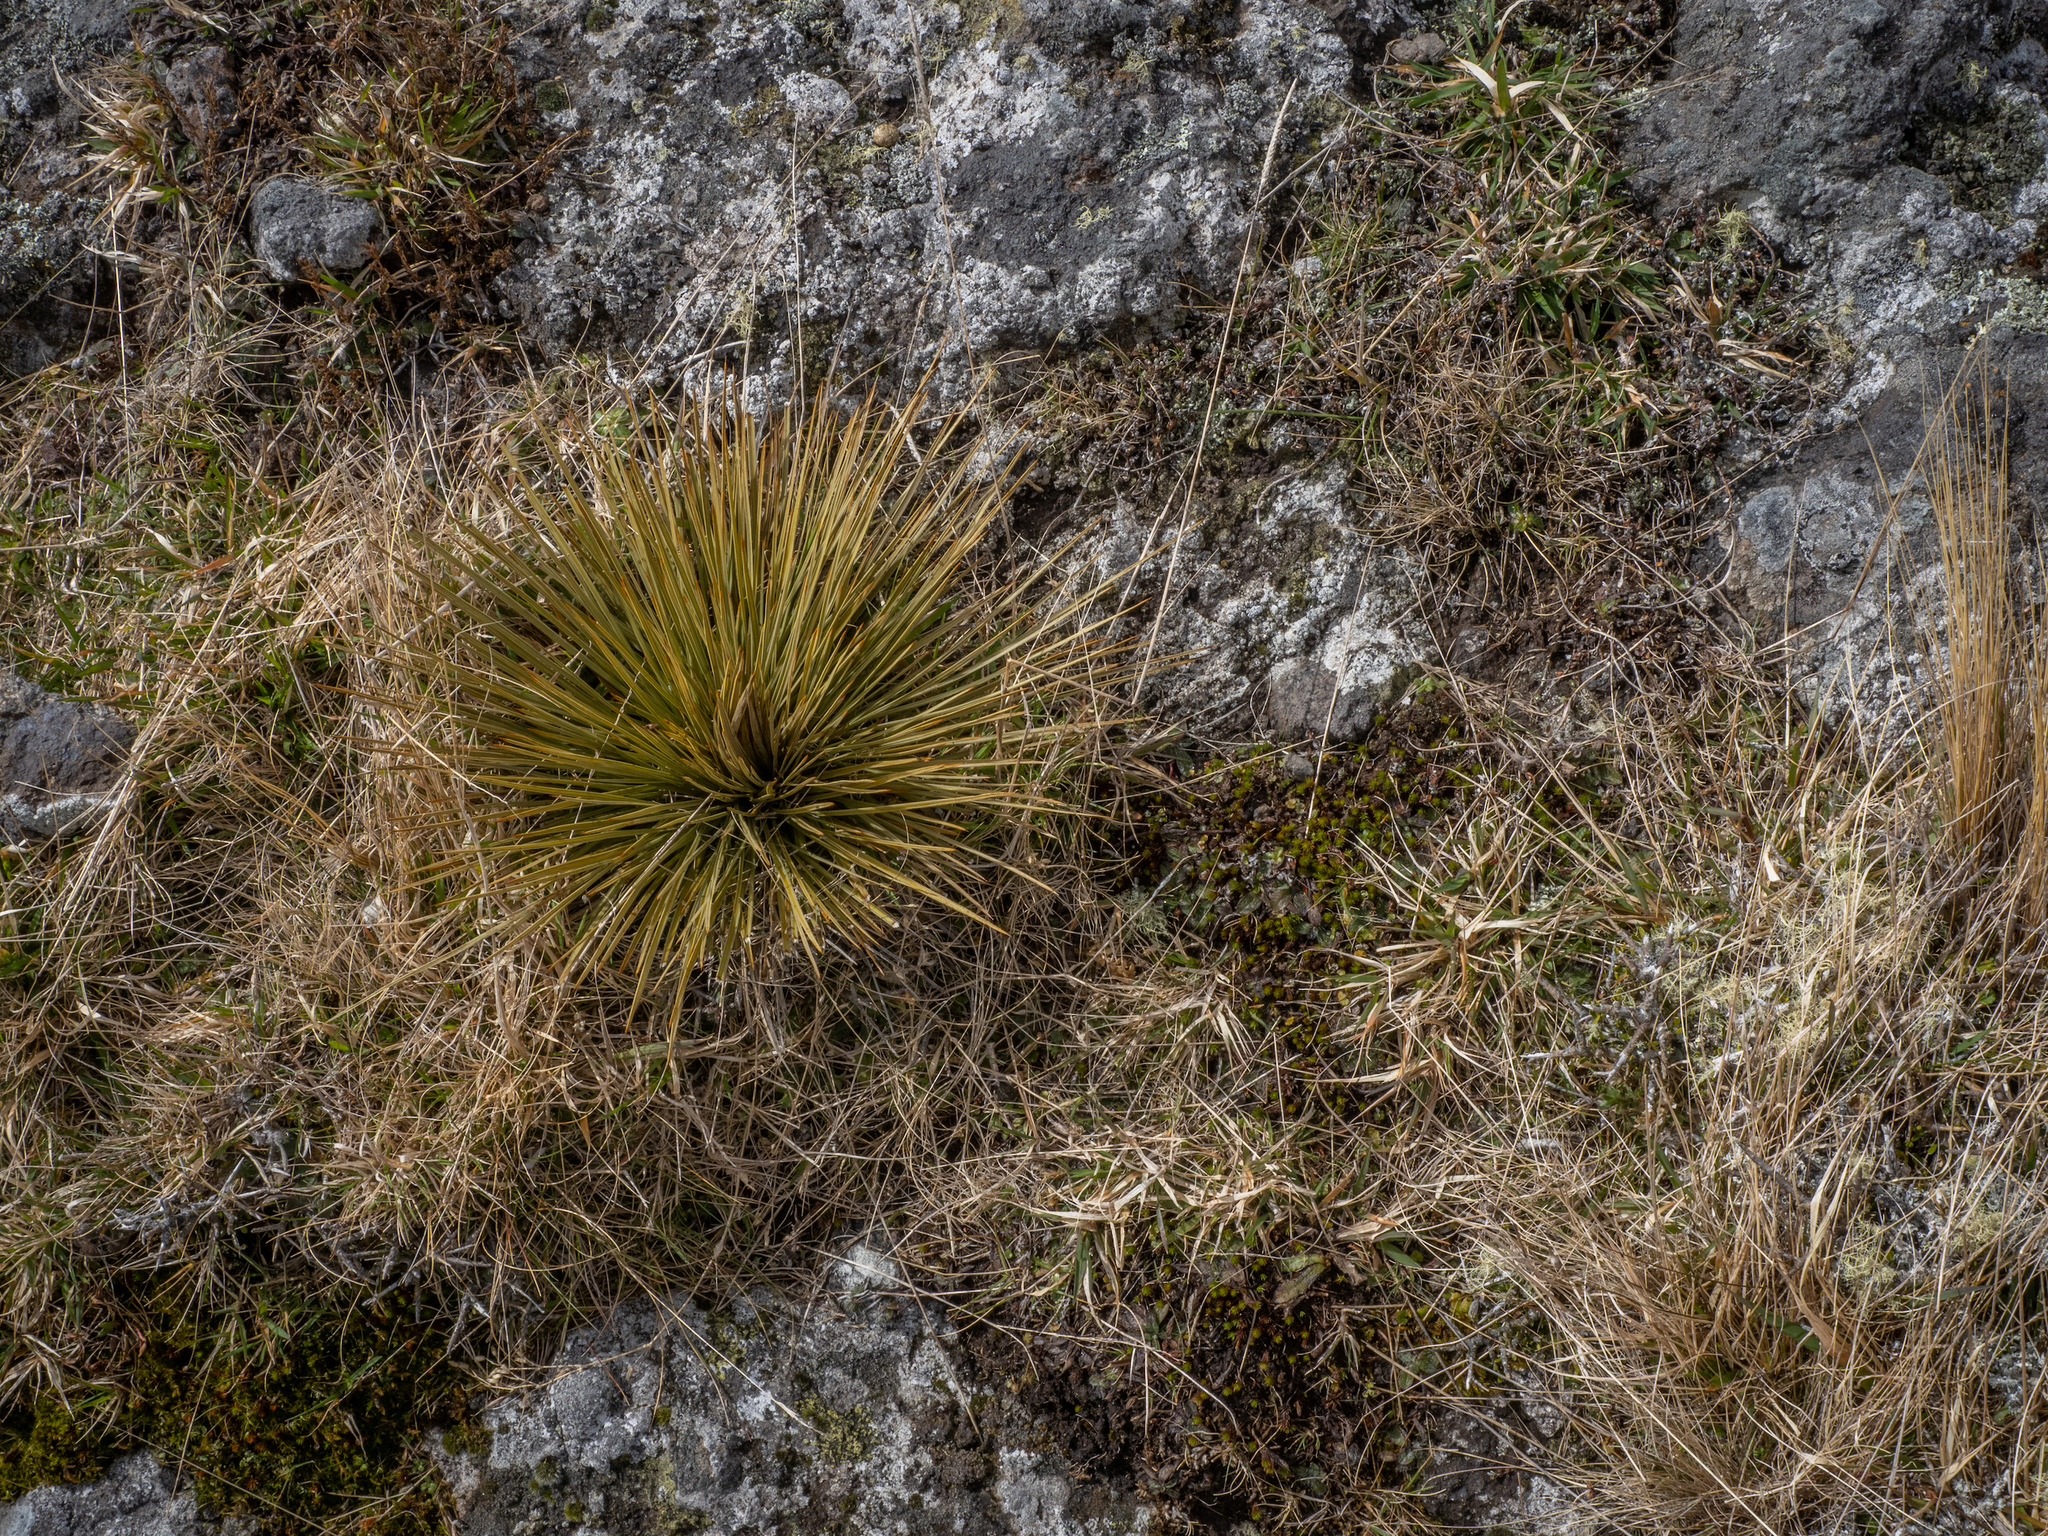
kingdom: Plantae
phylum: Tracheophyta
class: Magnoliopsida
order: Apiales
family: Apiaceae
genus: Aciphylla
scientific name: Aciphylla subflabellata
